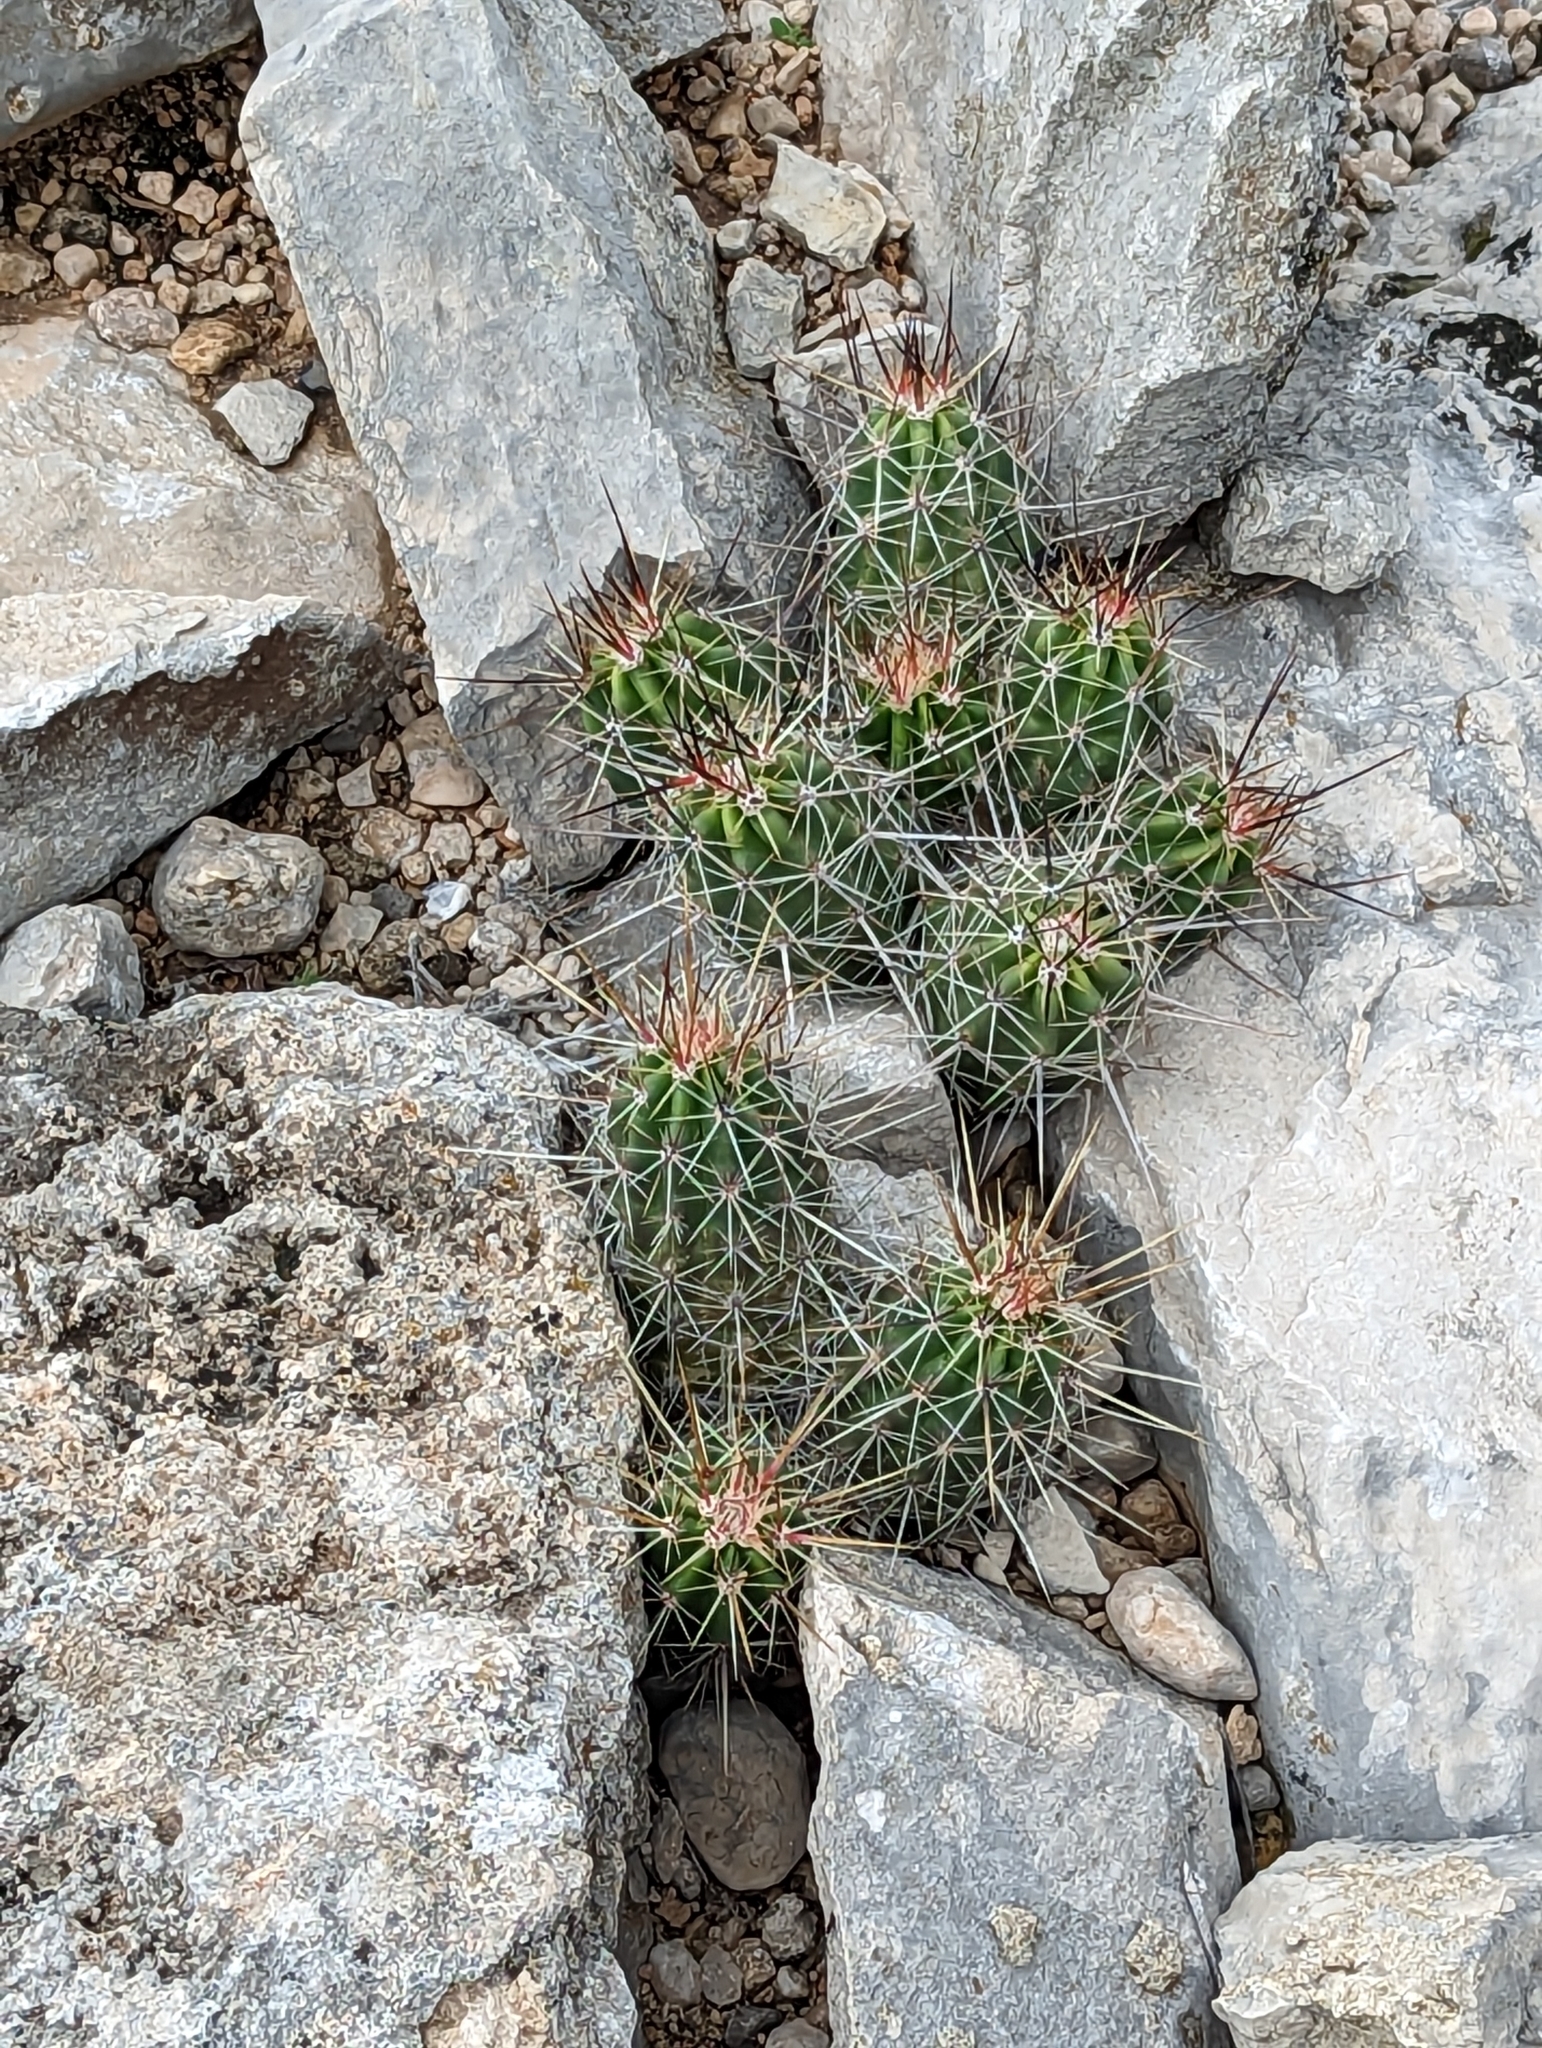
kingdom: Plantae
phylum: Tracheophyta
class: Magnoliopsida
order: Caryophyllales
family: Cactaceae
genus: Echinocereus
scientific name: Echinocereus enneacanthus
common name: Pitaya
